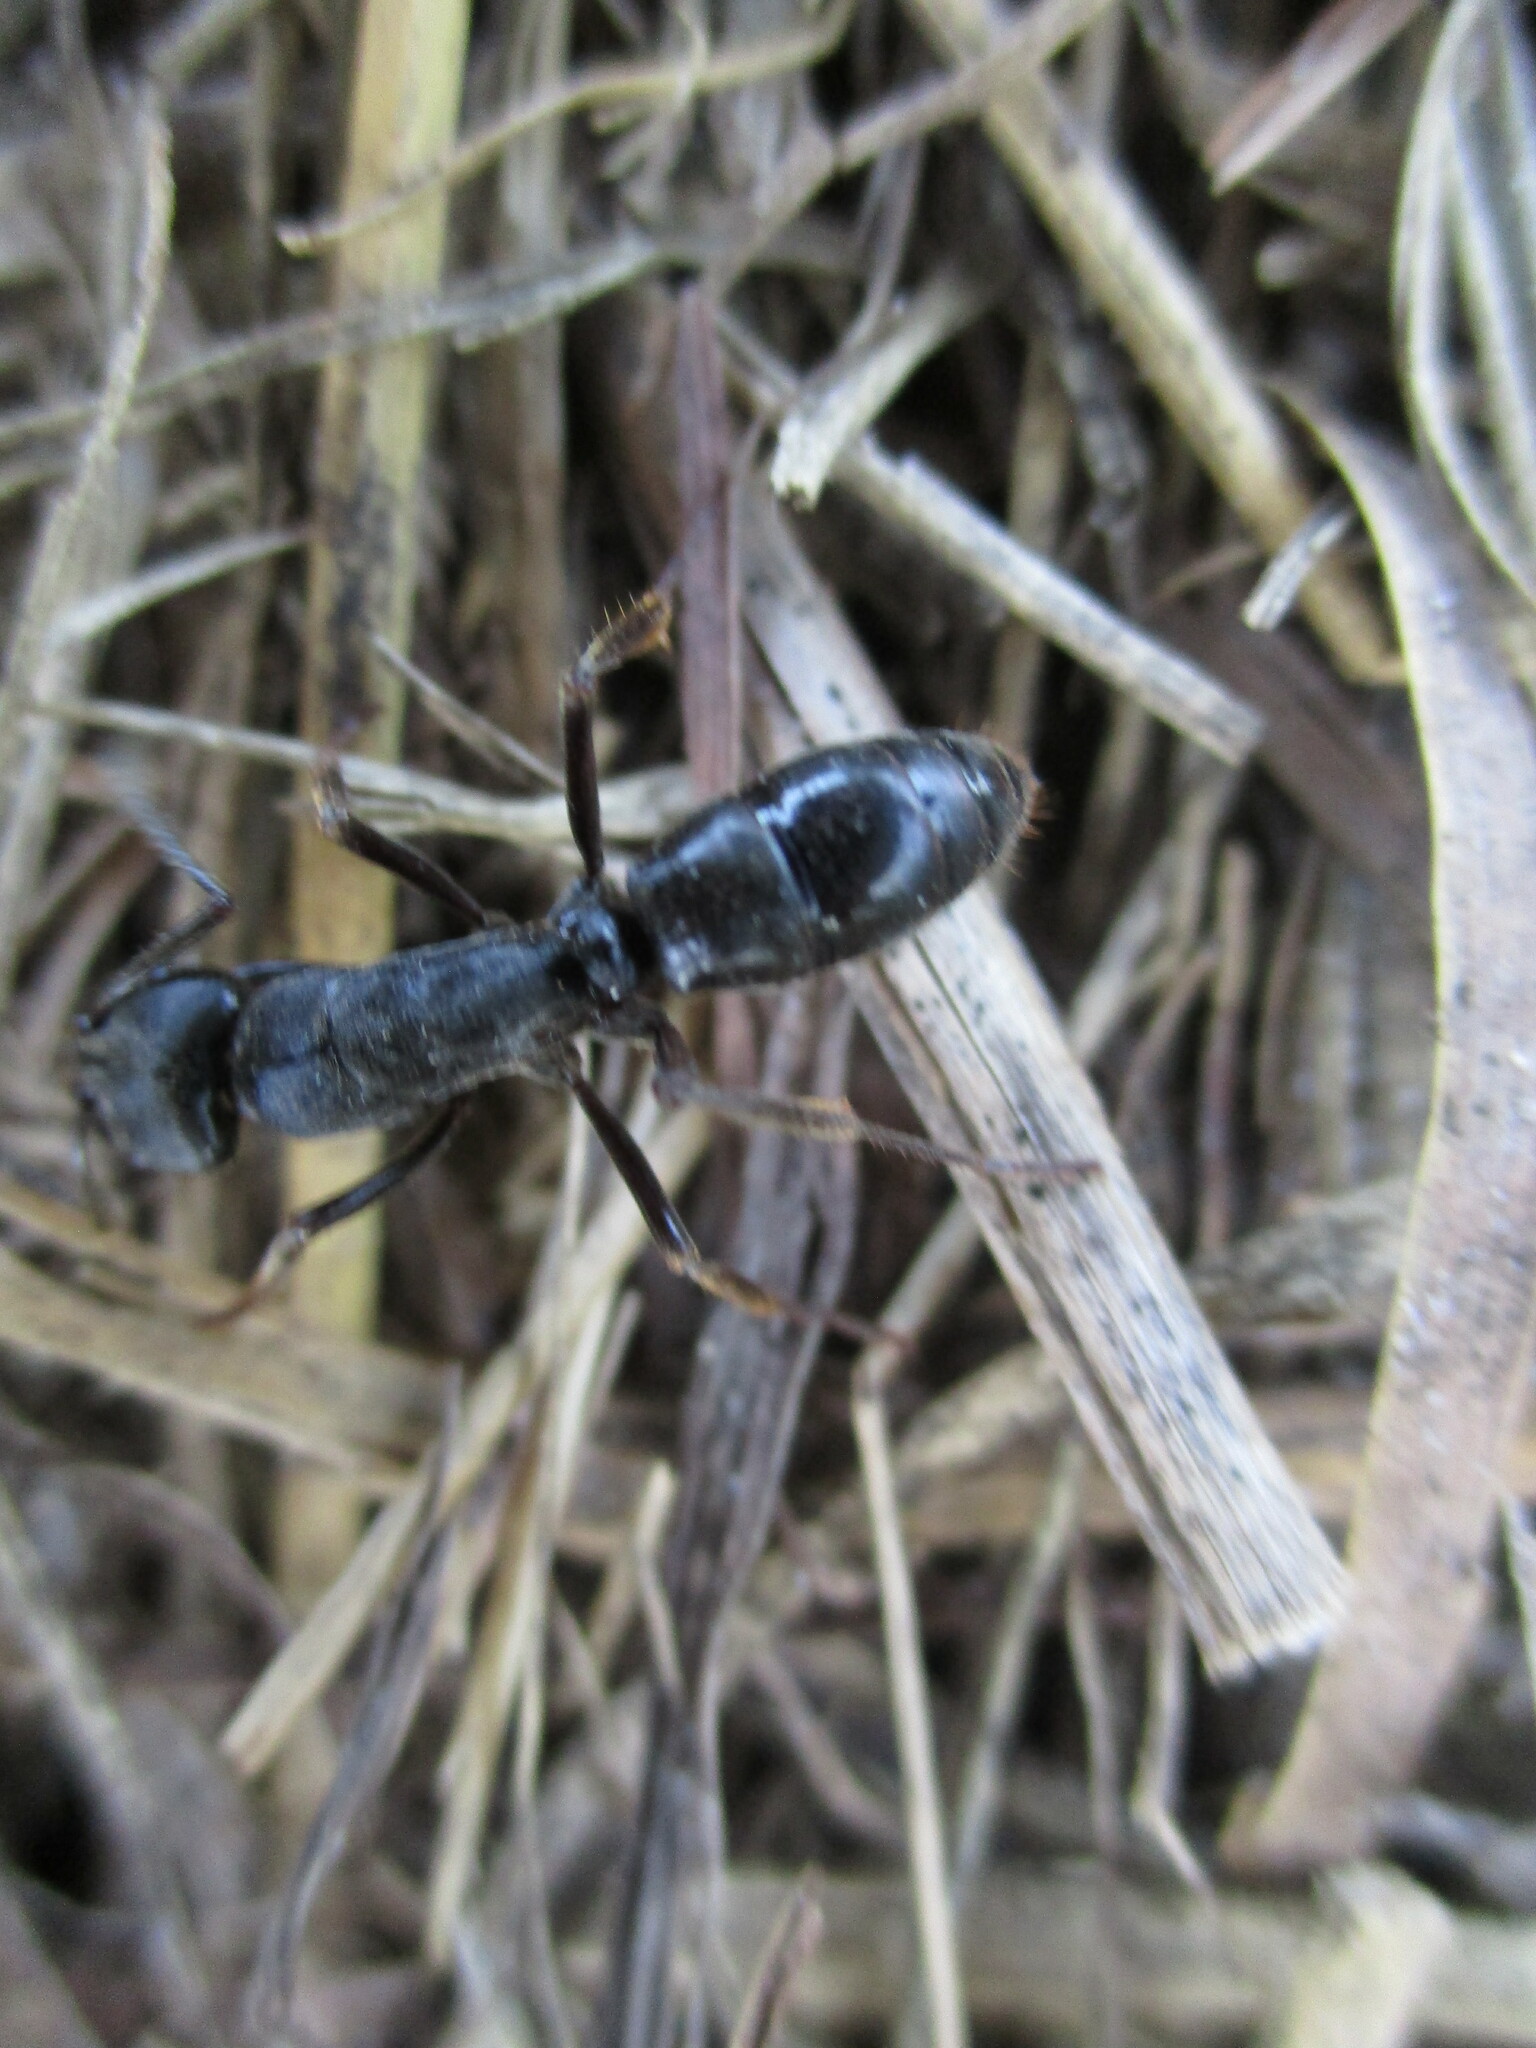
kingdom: Animalia
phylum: Arthropoda
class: Insecta
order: Hymenoptera
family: Formicidae
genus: Paltothyreus
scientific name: Paltothyreus tarsatus
